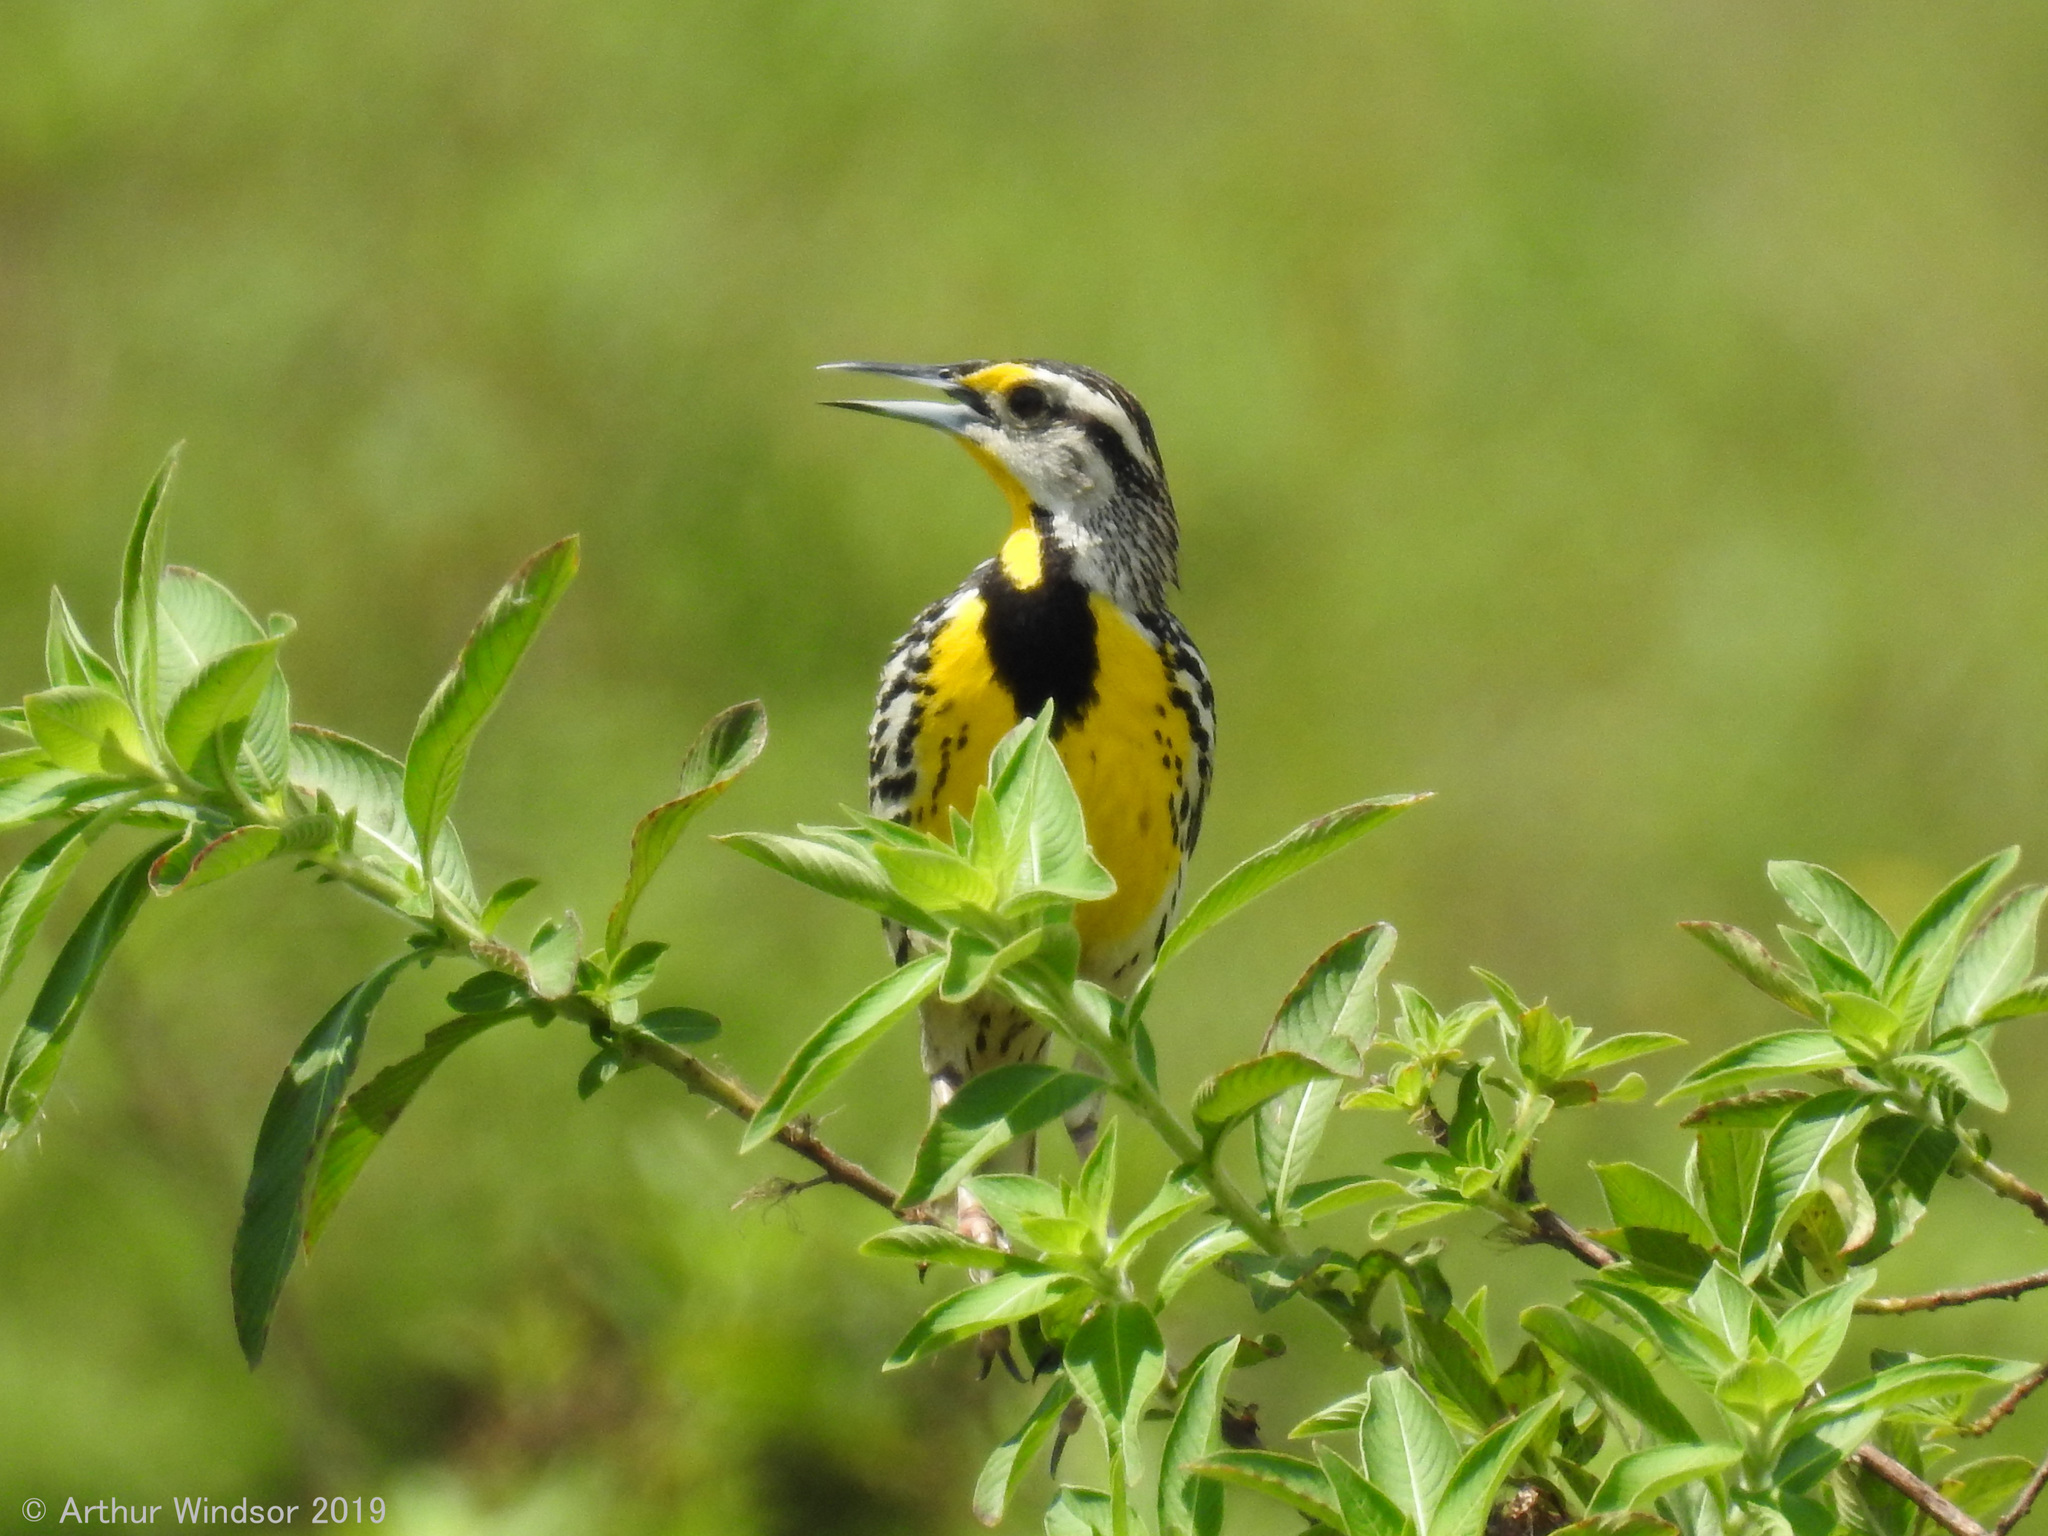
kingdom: Animalia
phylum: Chordata
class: Aves
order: Passeriformes
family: Icteridae
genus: Sturnella
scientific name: Sturnella magna
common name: Eastern meadowlark
